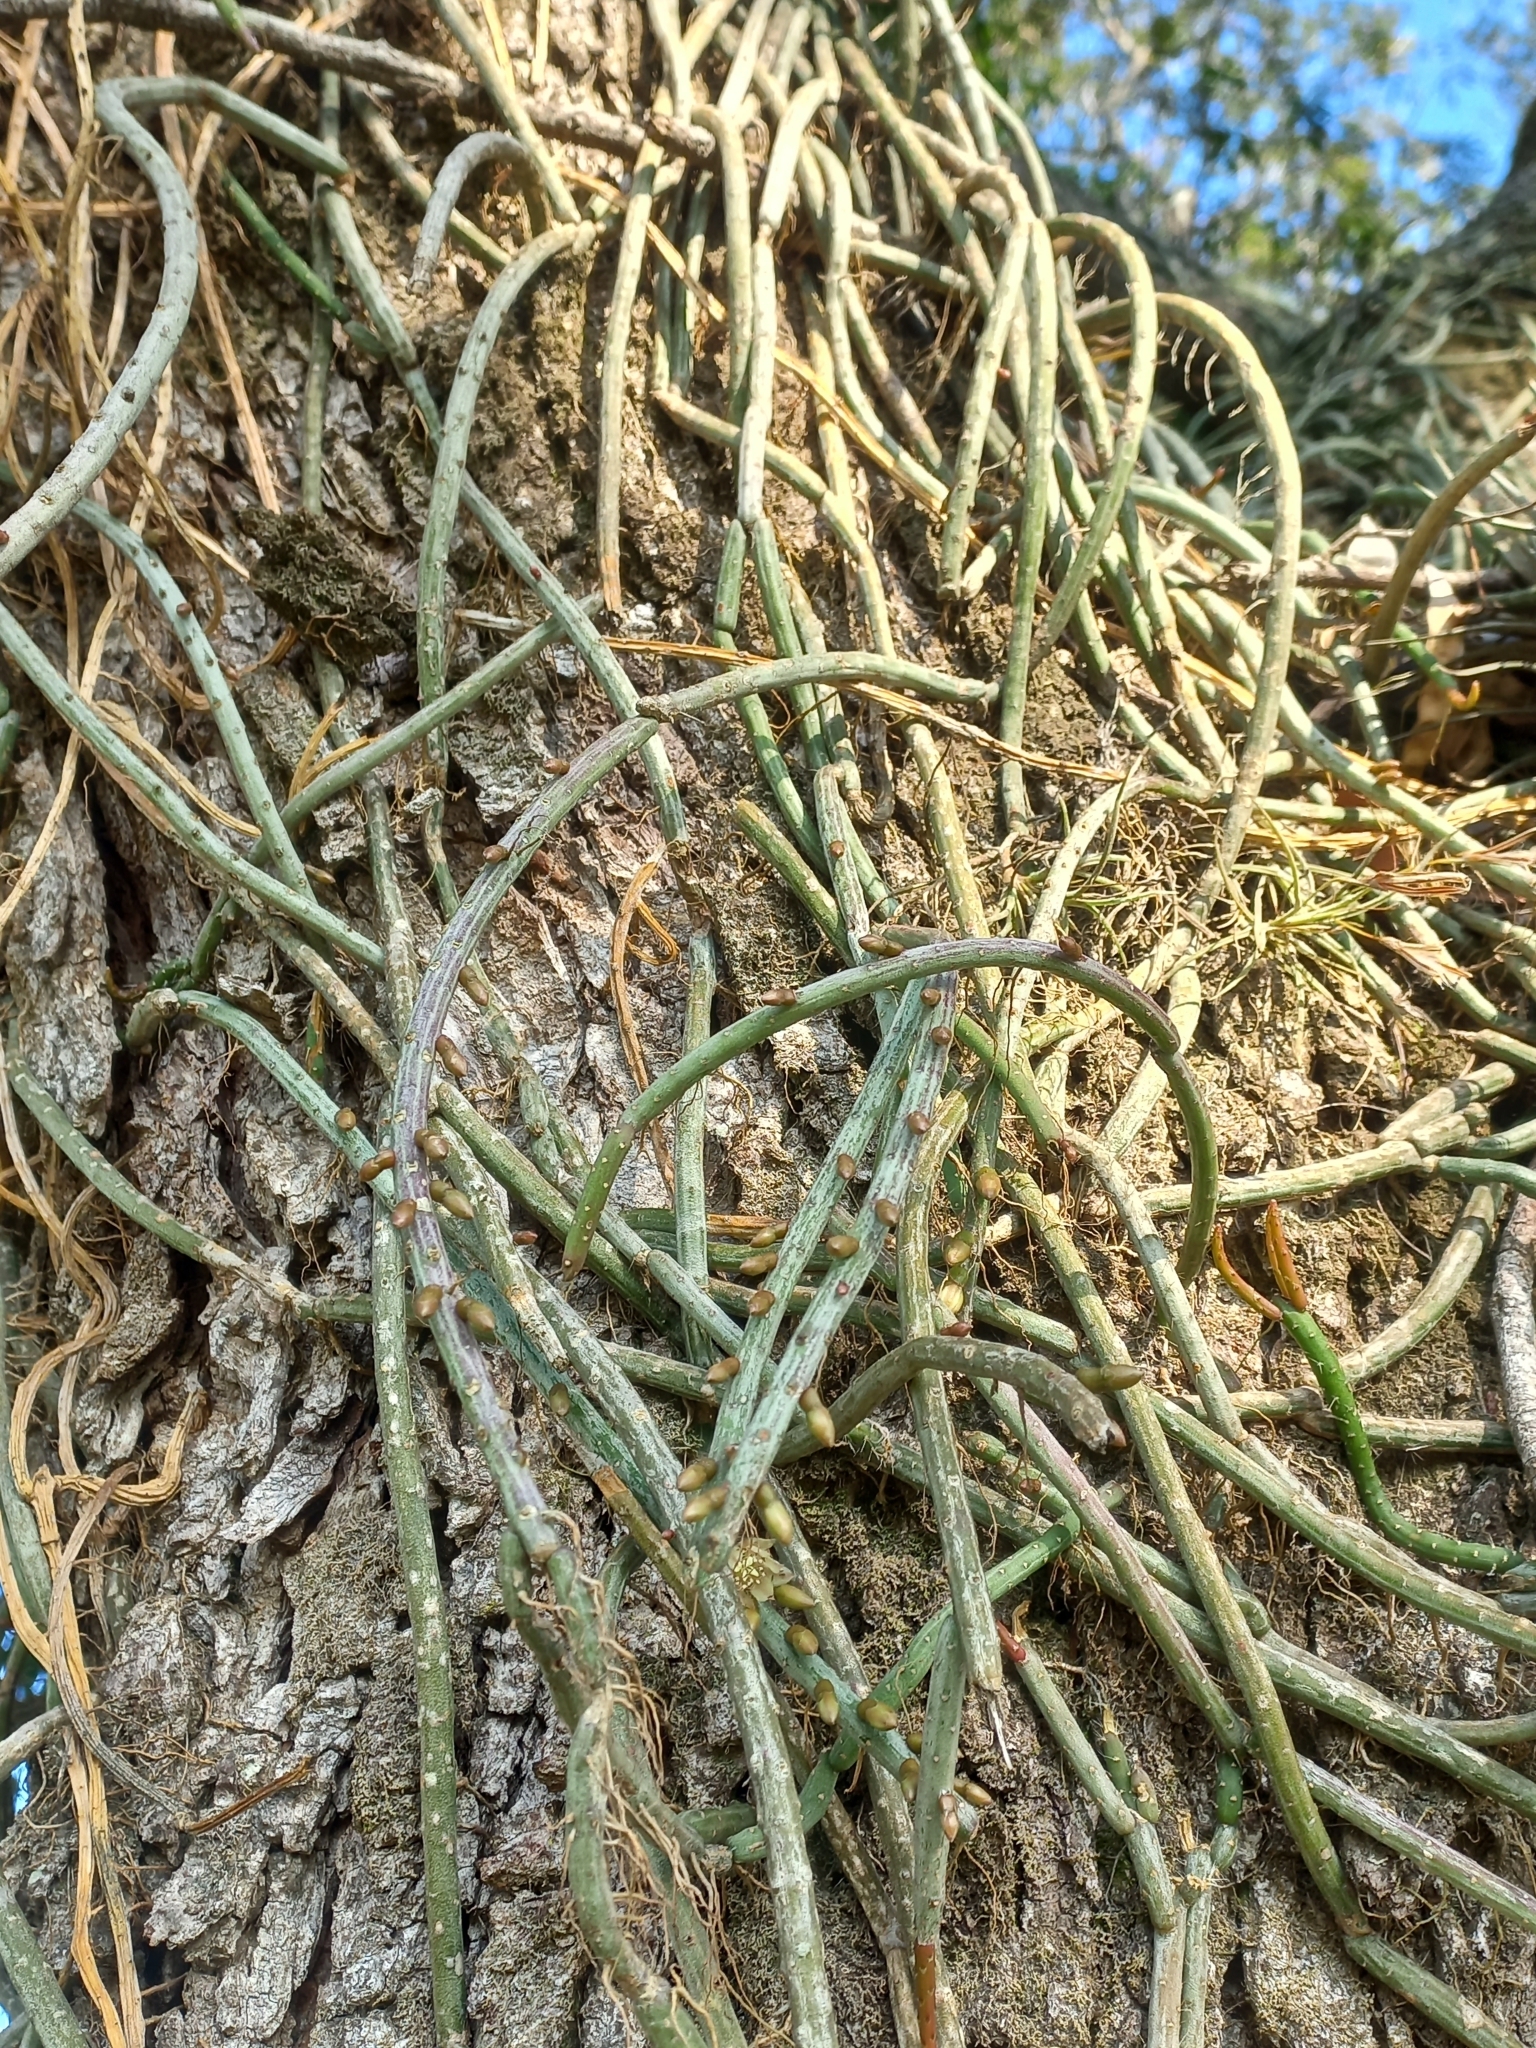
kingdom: Plantae
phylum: Tracheophyta
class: Magnoliopsida
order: Caryophyllales
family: Cactaceae
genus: Lepismium
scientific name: Lepismium lumbricoides
